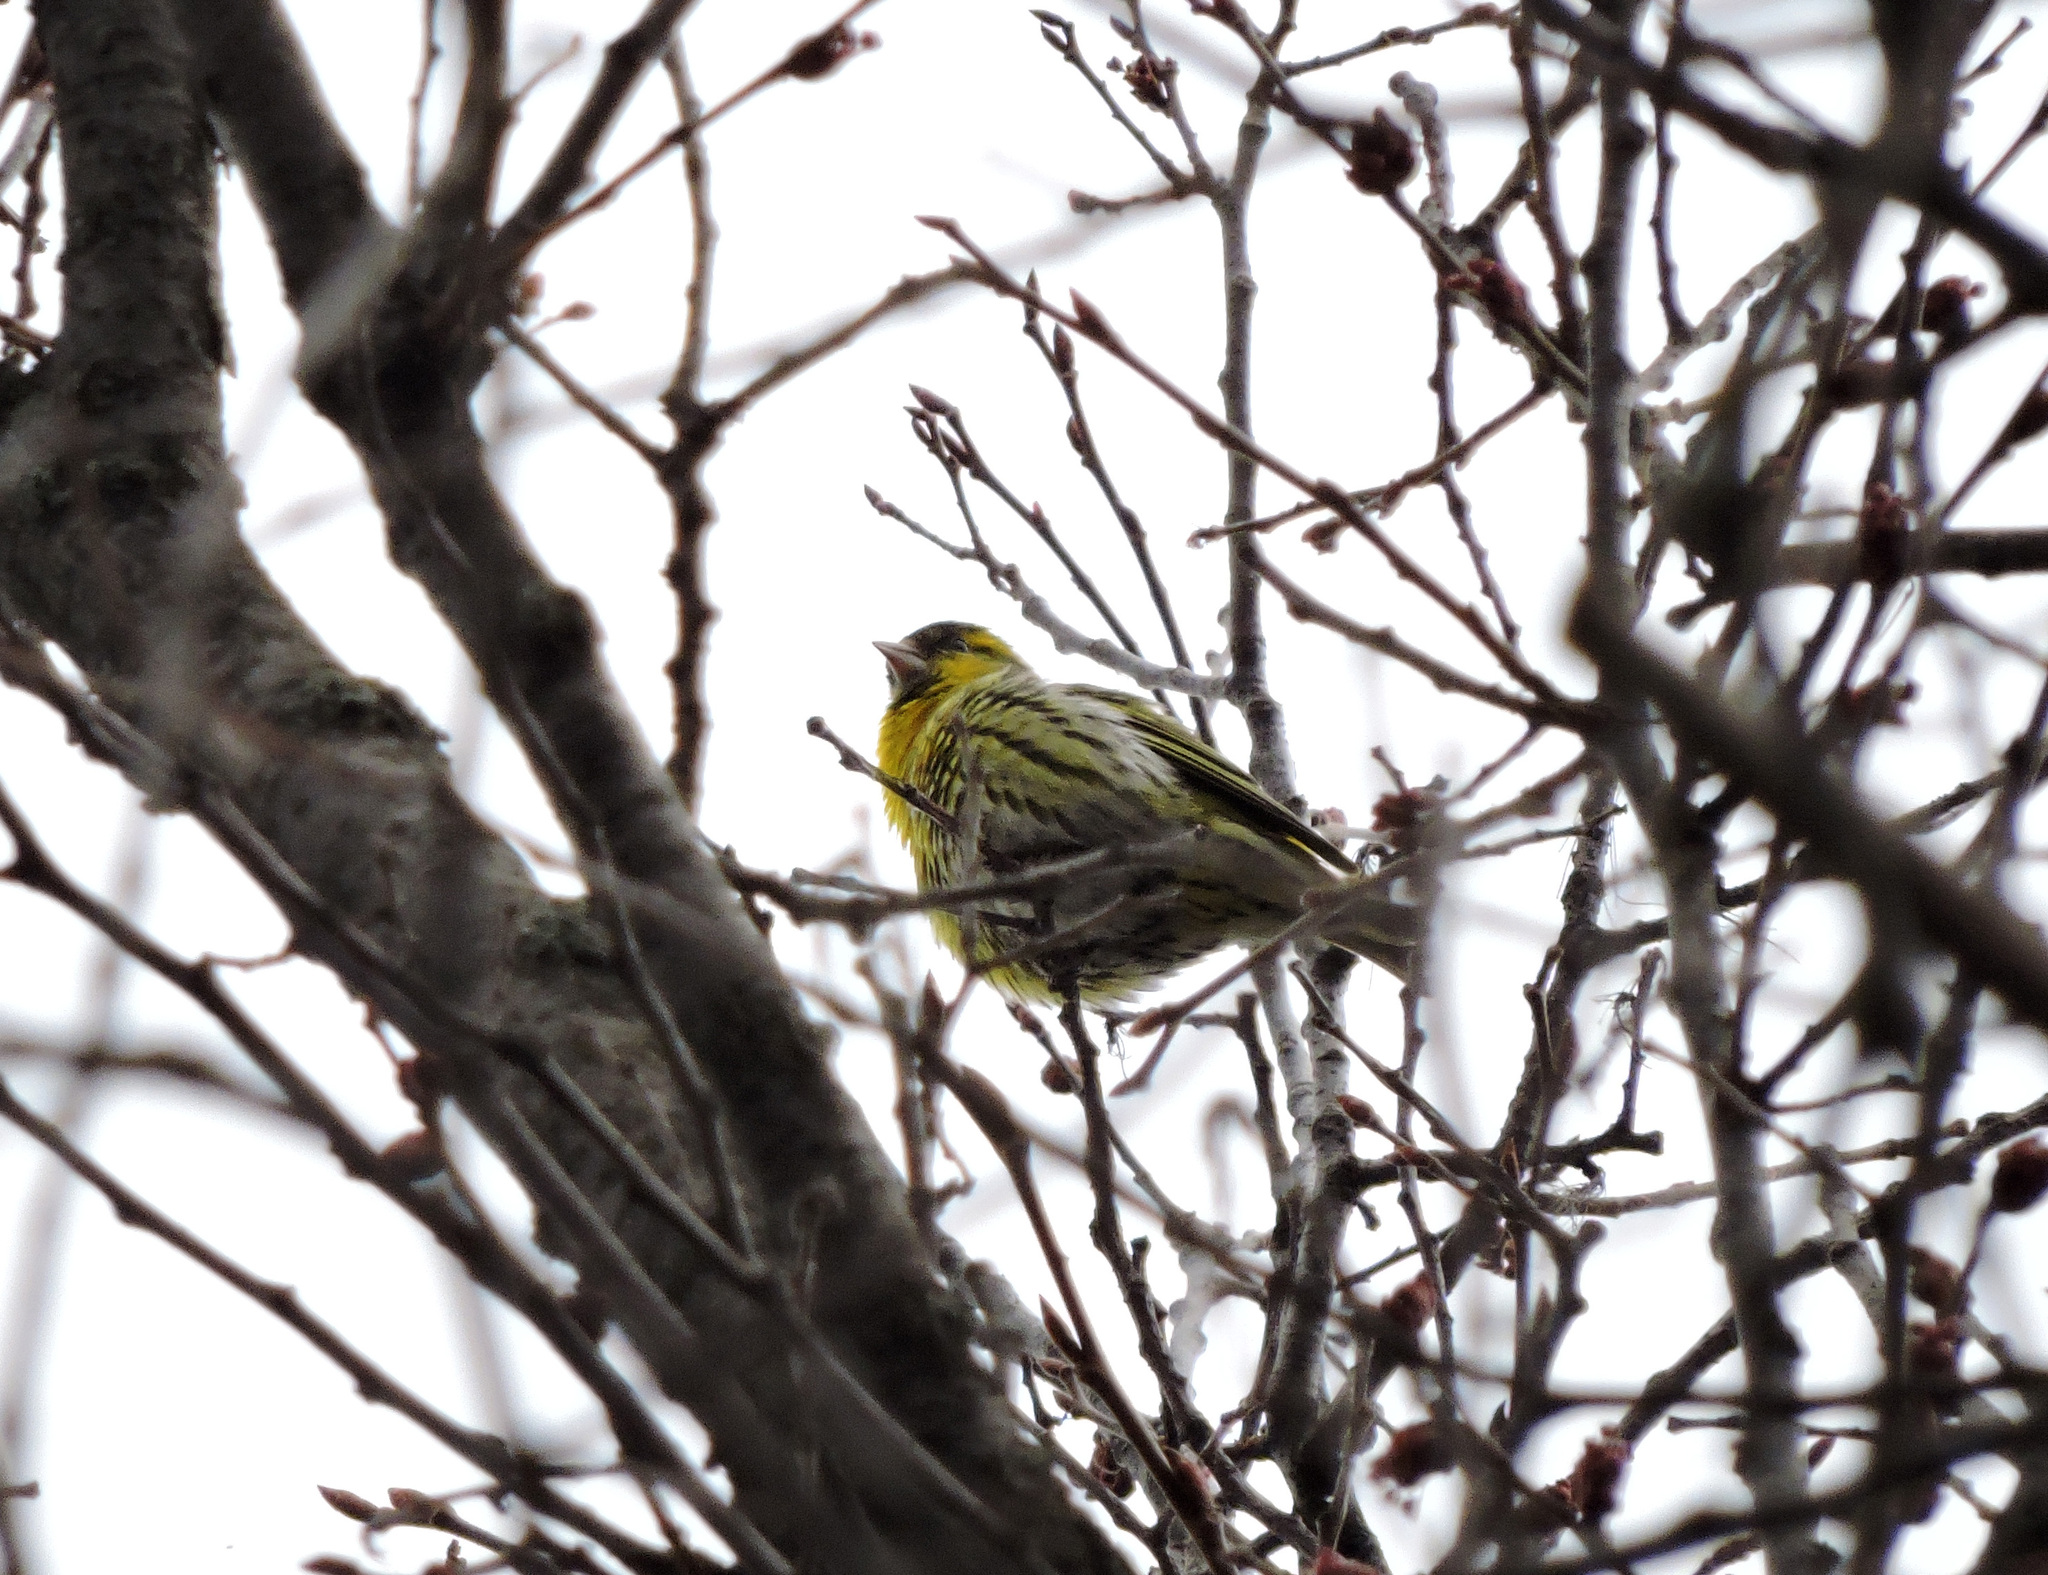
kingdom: Animalia
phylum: Chordata
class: Aves
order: Passeriformes
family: Fringillidae
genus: Spinus
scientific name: Spinus spinus
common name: Eurasian siskin
